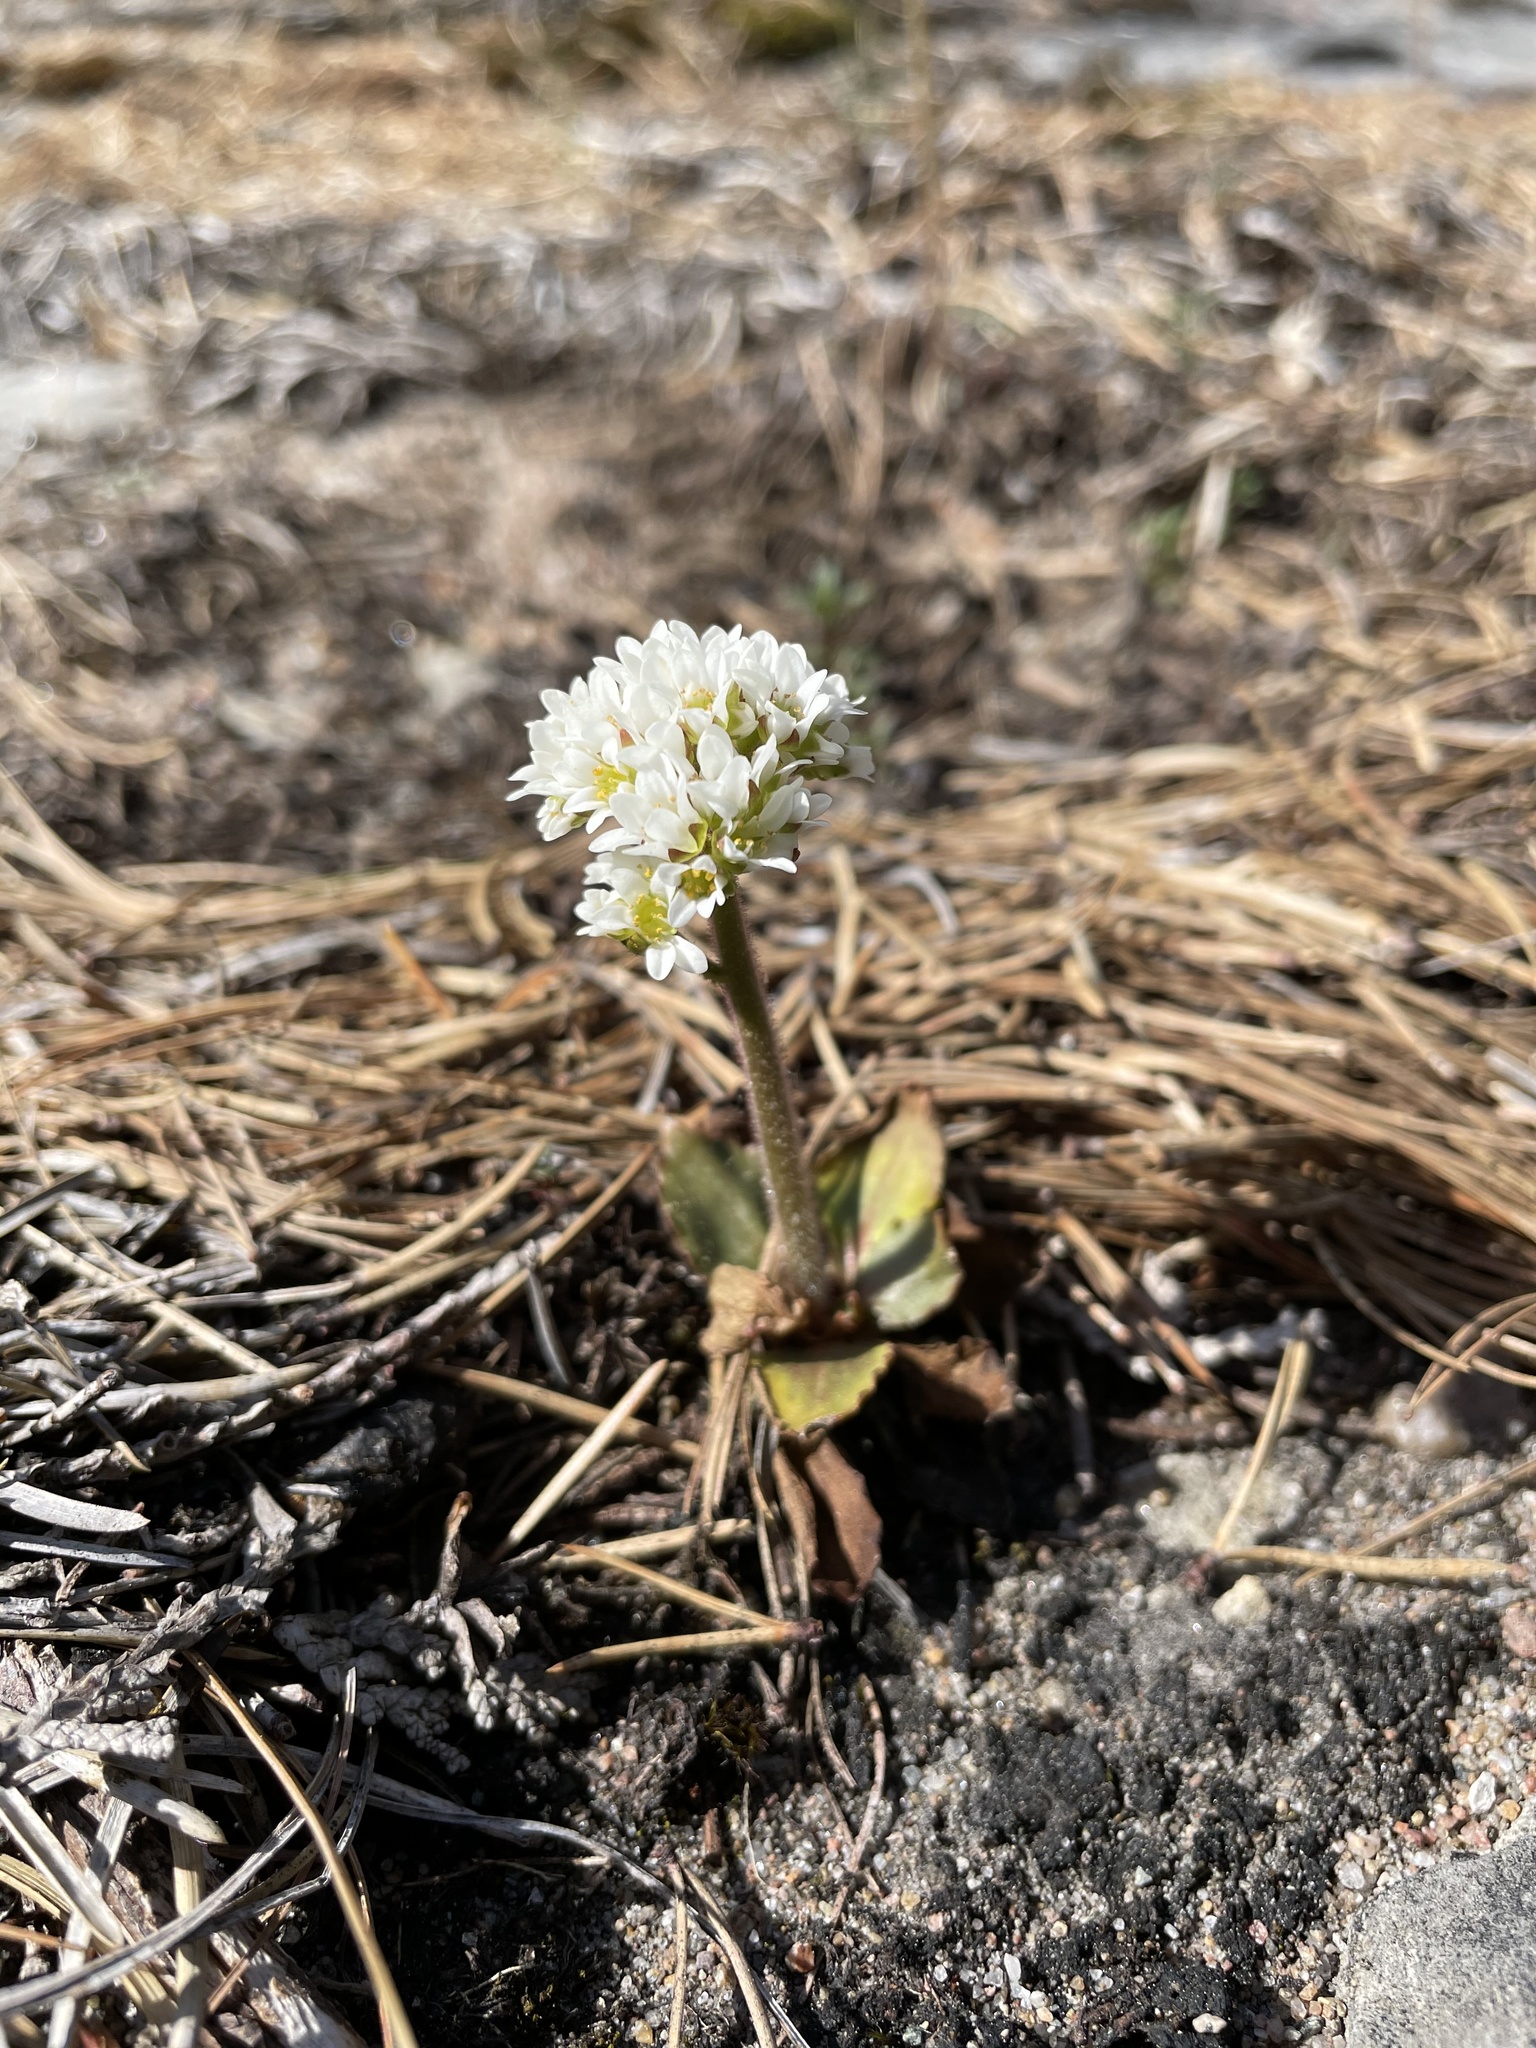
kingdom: Plantae
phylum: Tracheophyta
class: Magnoliopsida
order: Saxifragales
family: Saxifragaceae
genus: Micranthes
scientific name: Micranthes virginiensis
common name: Early saxifrage
